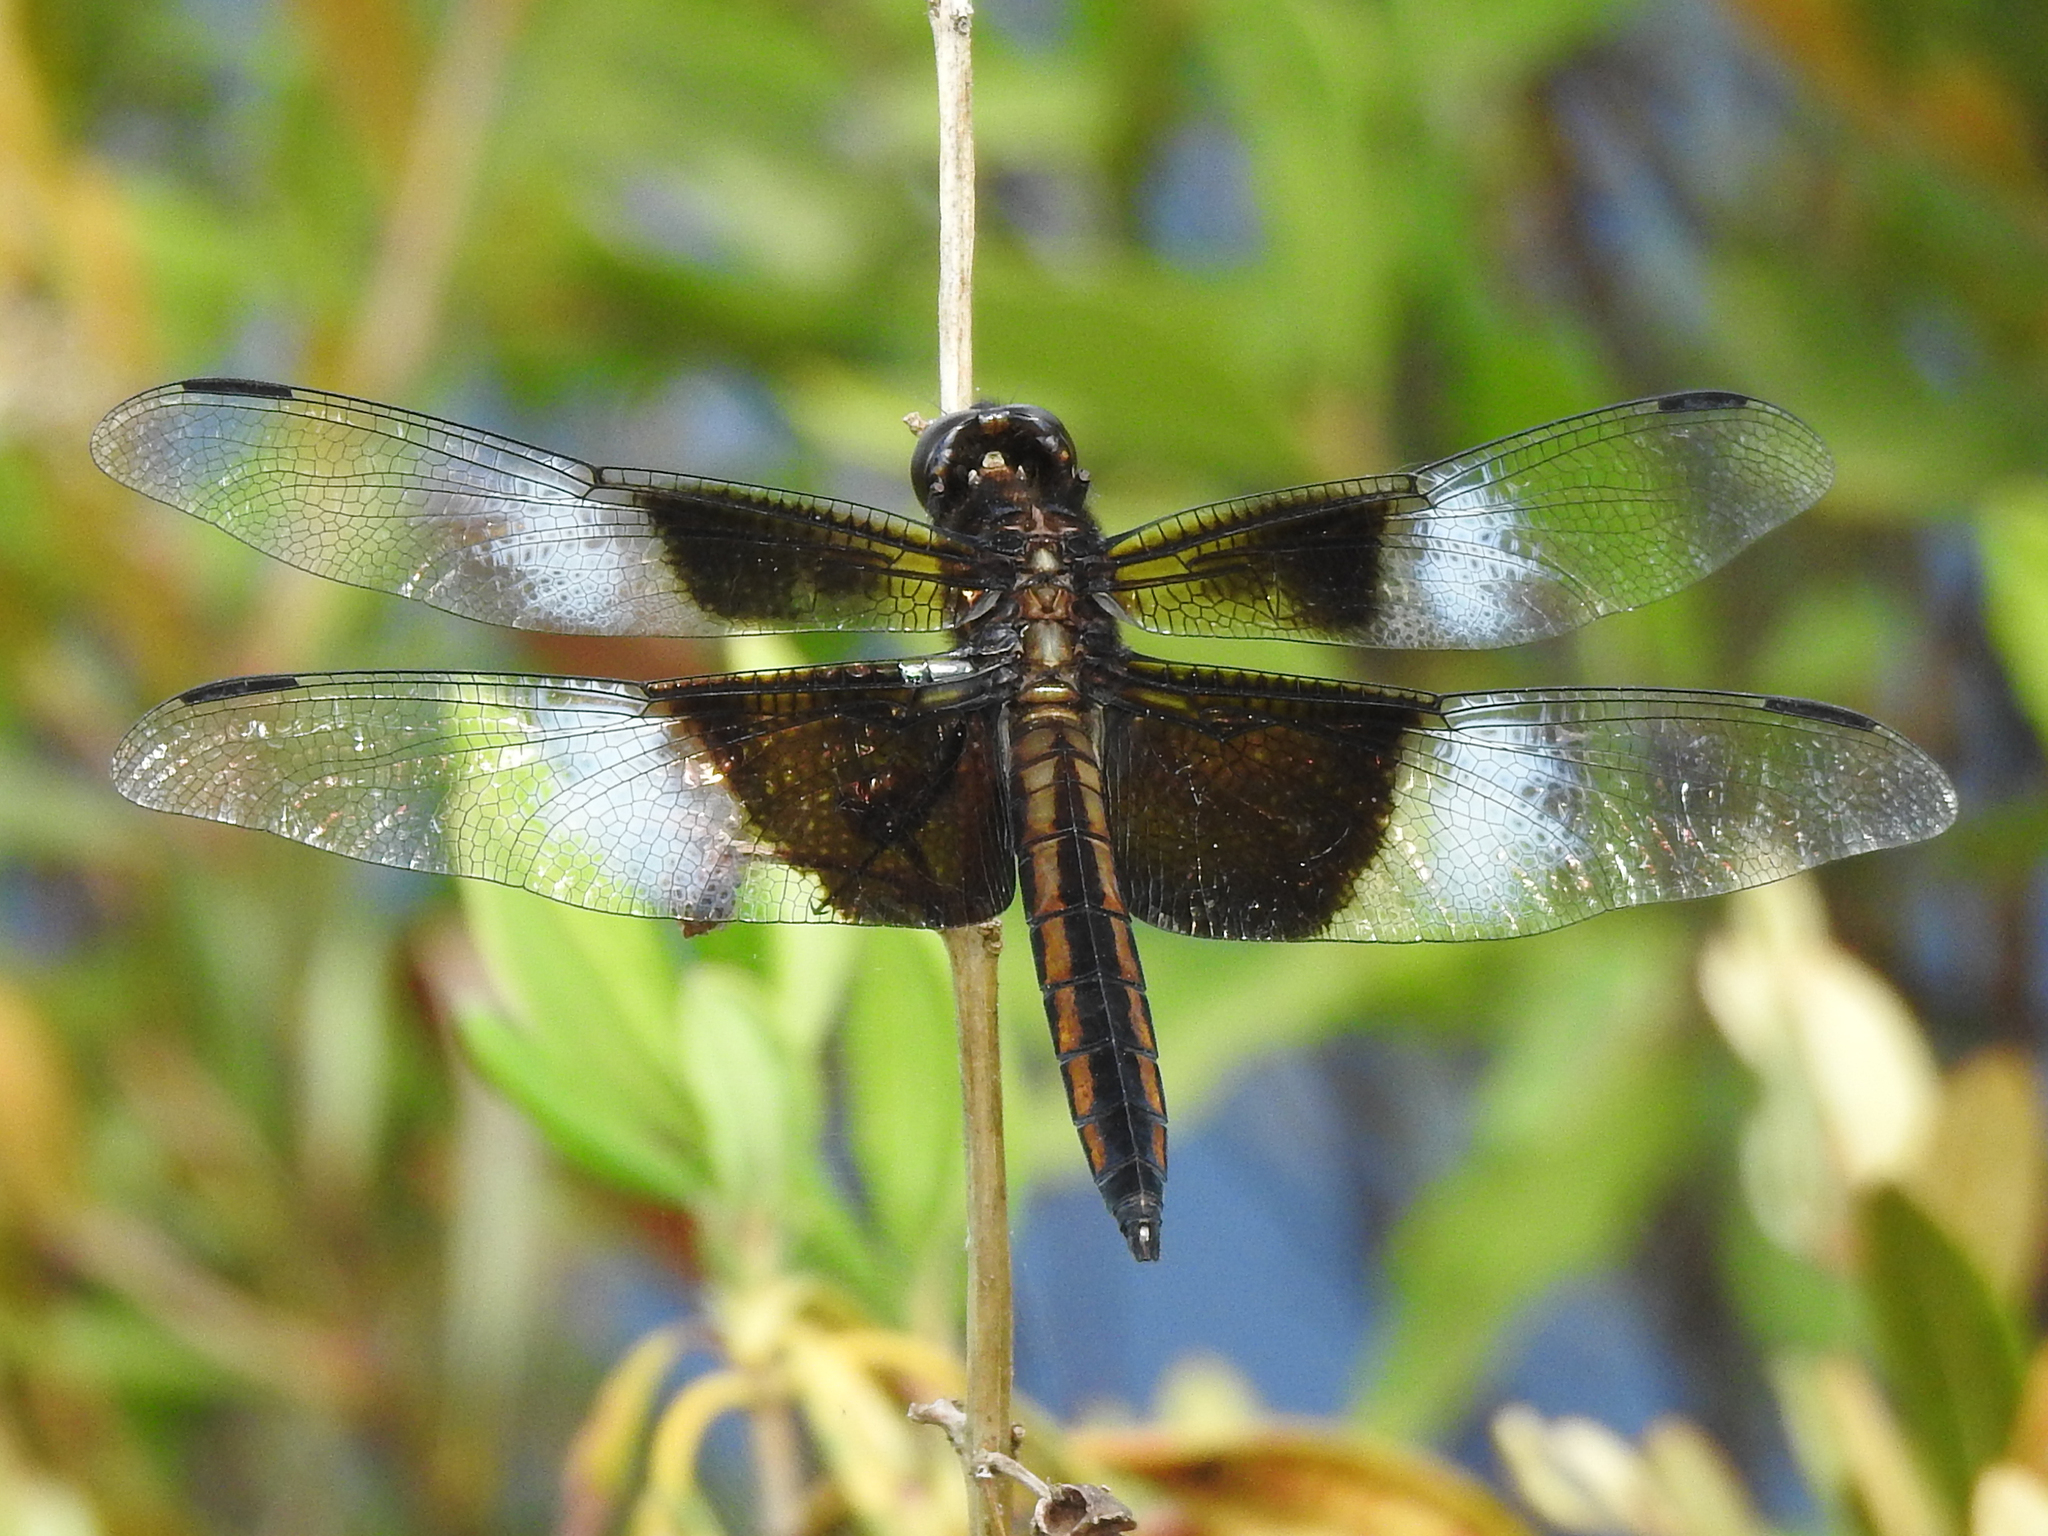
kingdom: Animalia
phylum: Arthropoda
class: Insecta
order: Odonata
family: Libellulidae
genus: Libellula
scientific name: Libellula luctuosa
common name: Widow skimmer
